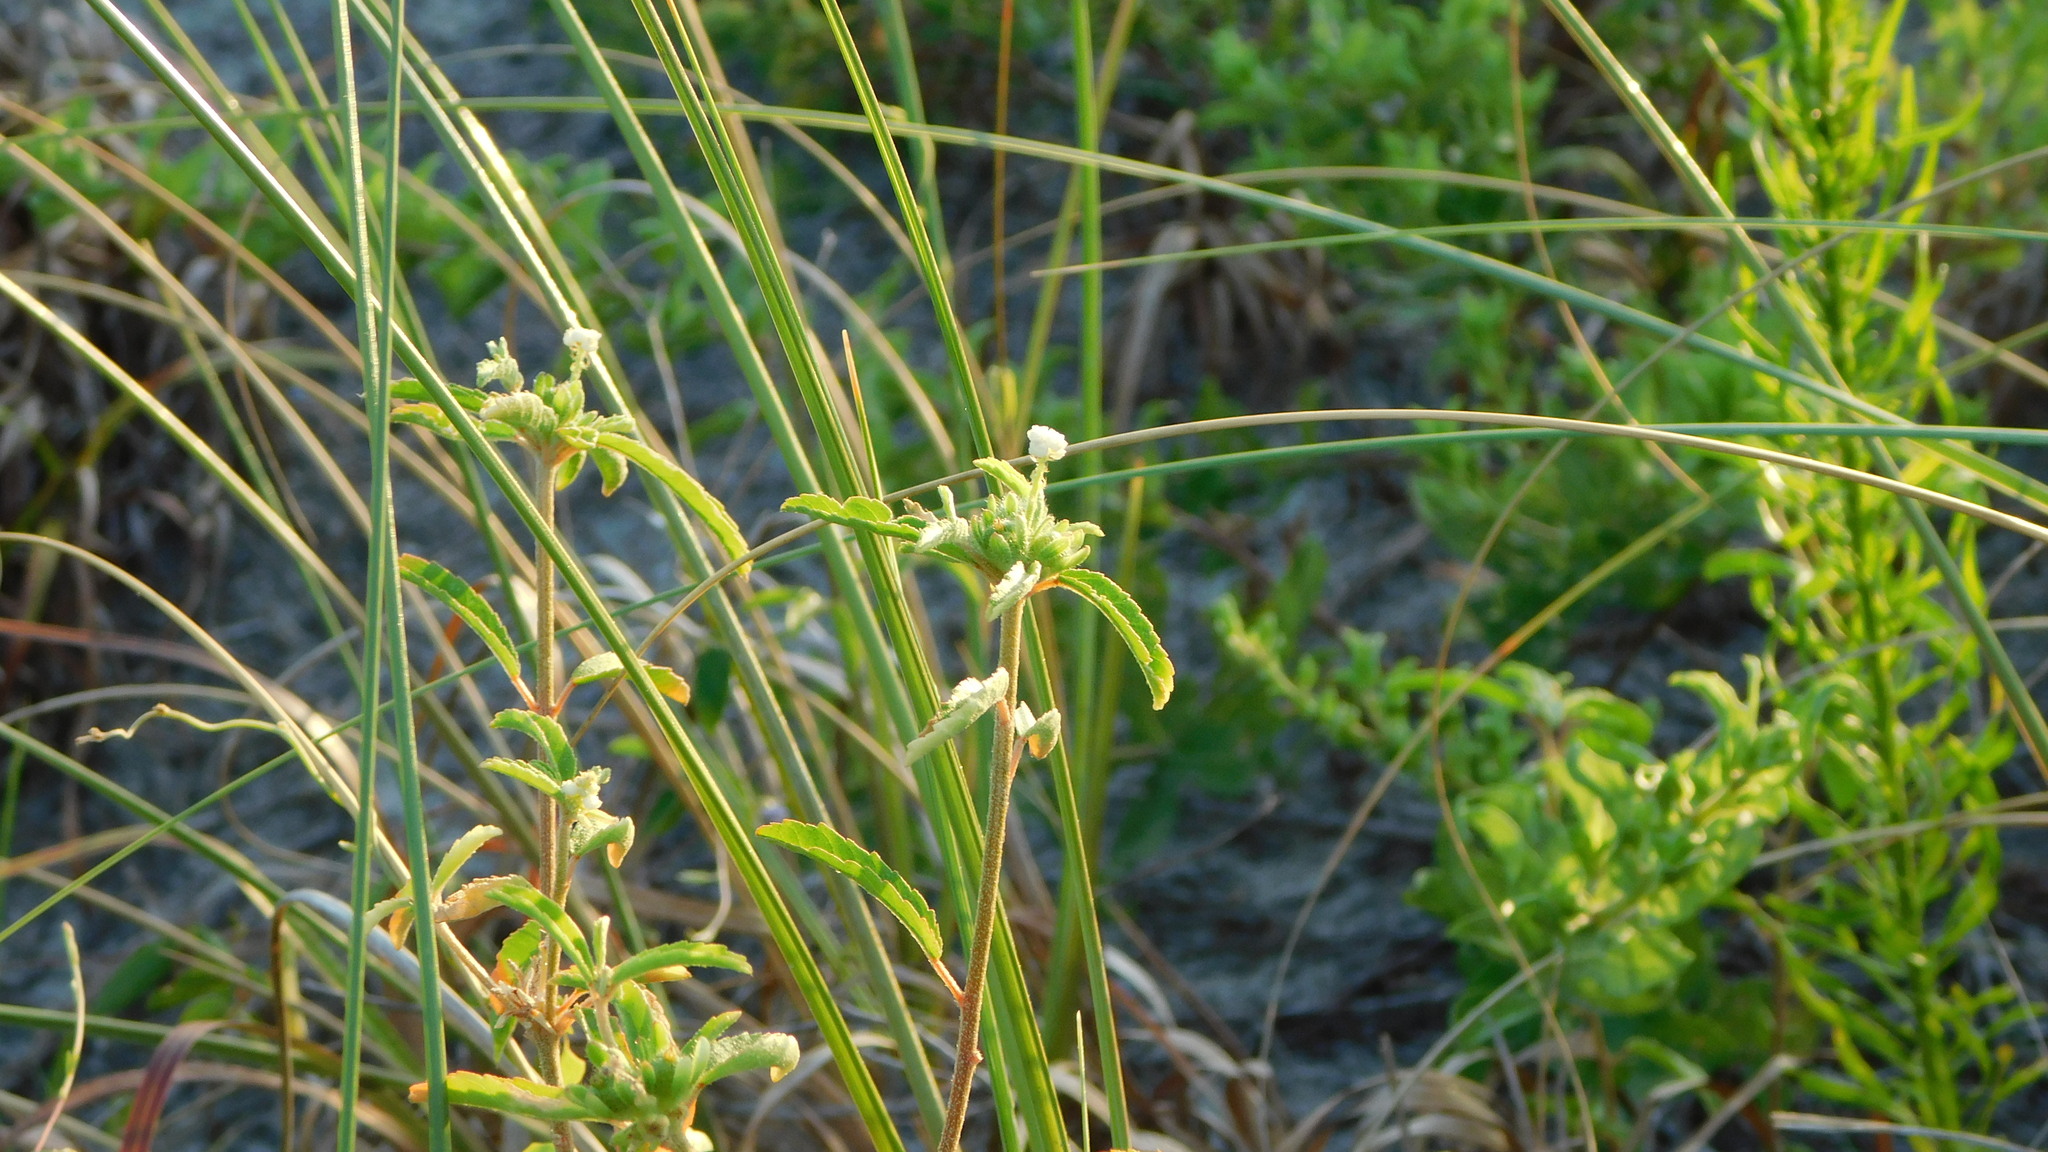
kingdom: Plantae
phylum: Tracheophyta
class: Magnoliopsida
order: Malpighiales
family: Euphorbiaceae
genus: Croton
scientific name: Croton glandulosus
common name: Tropic croton
